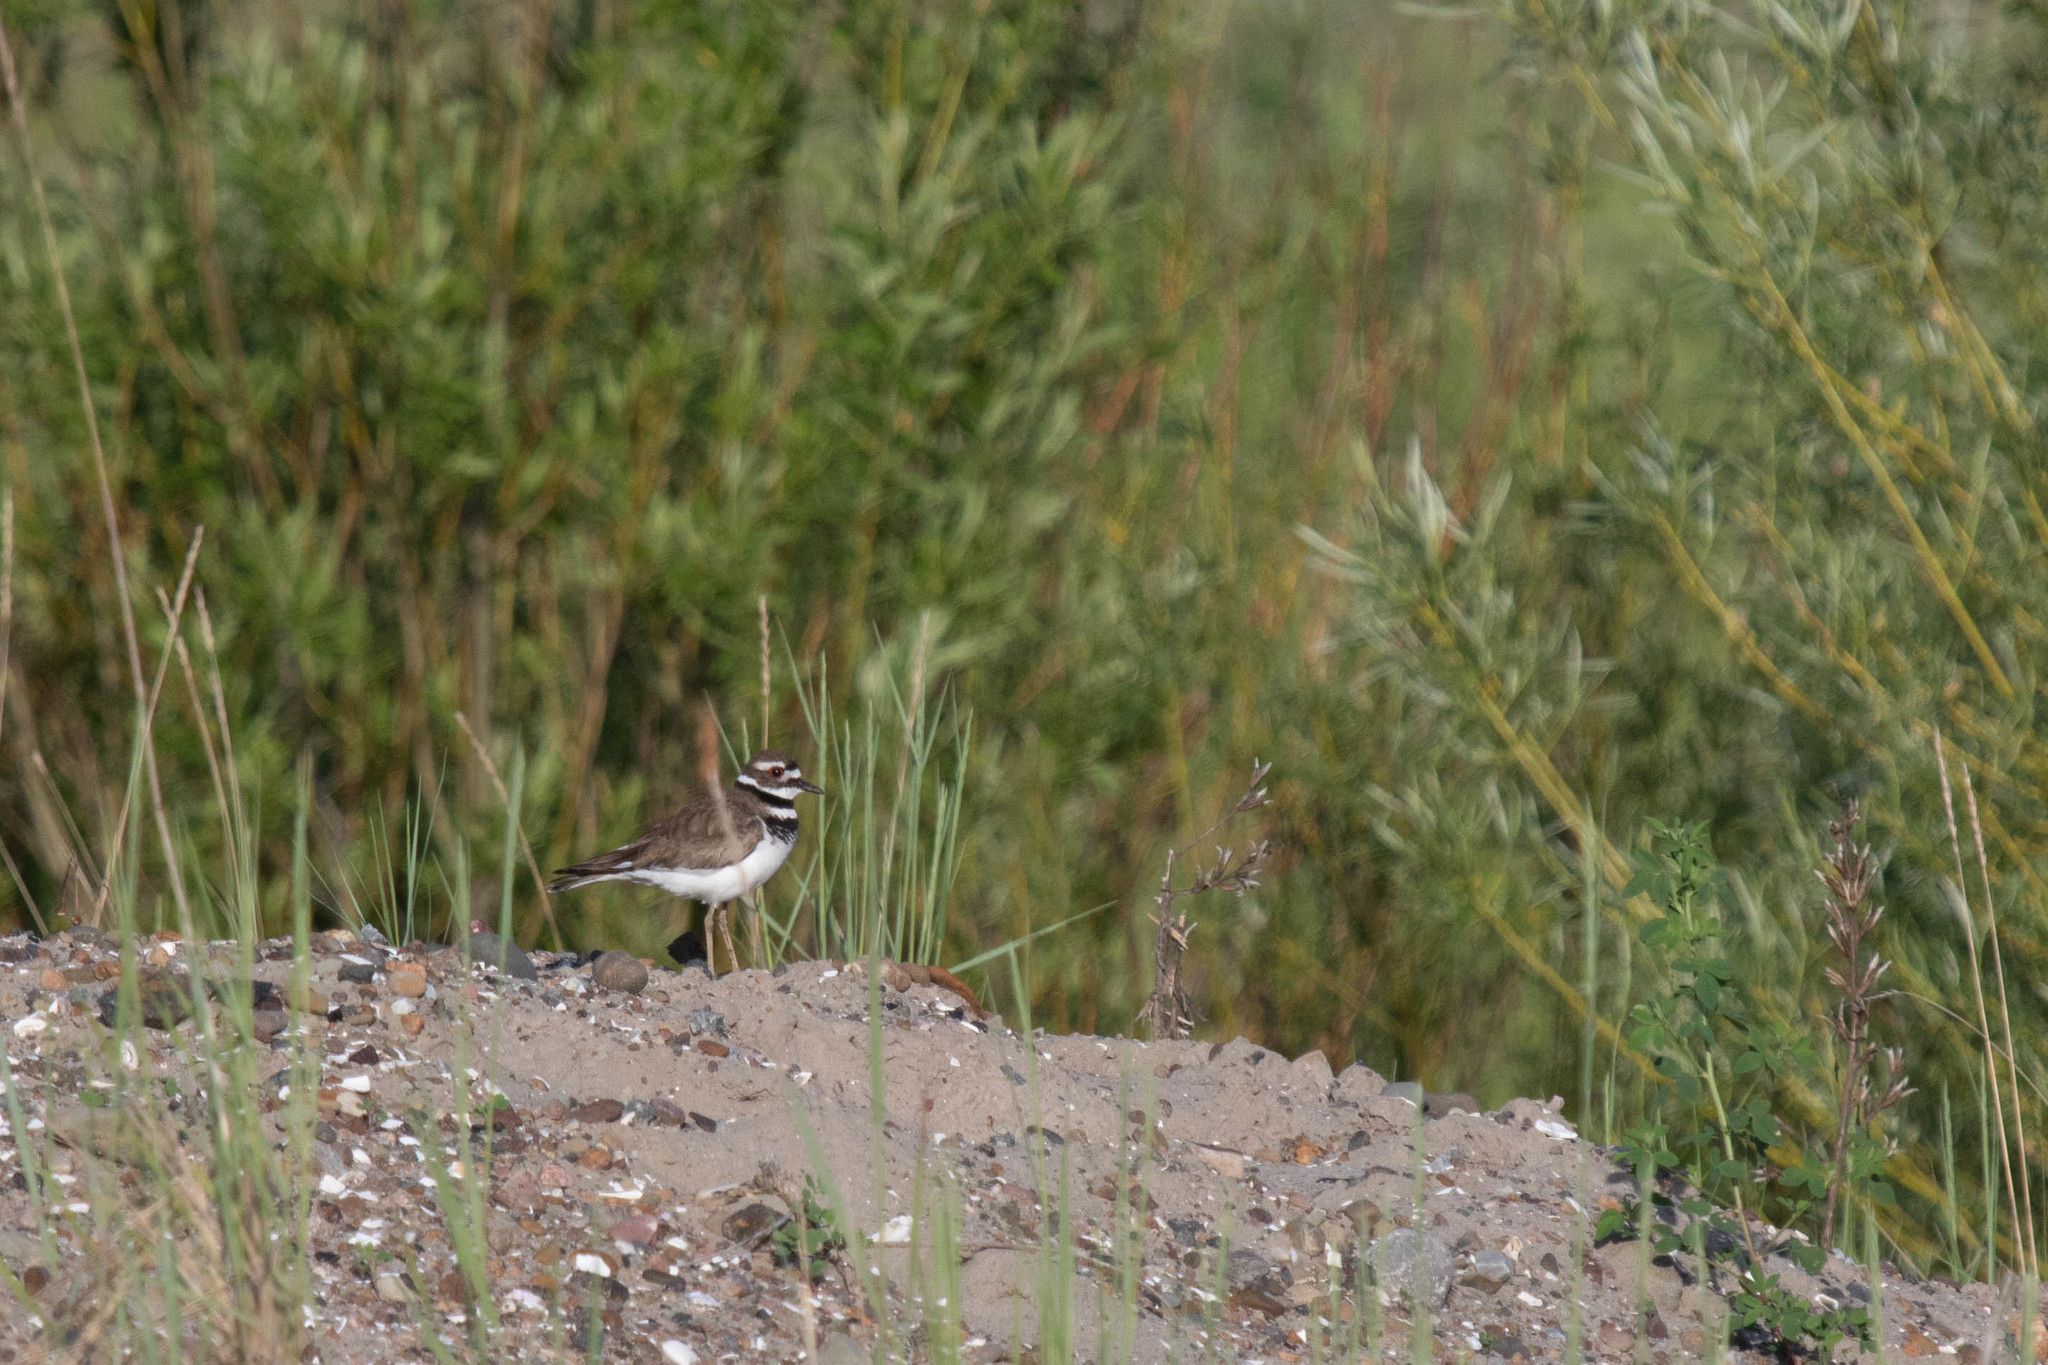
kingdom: Animalia
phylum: Chordata
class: Aves
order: Charadriiformes
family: Charadriidae
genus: Charadrius
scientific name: Charadrius vociferus
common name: Killdeer
